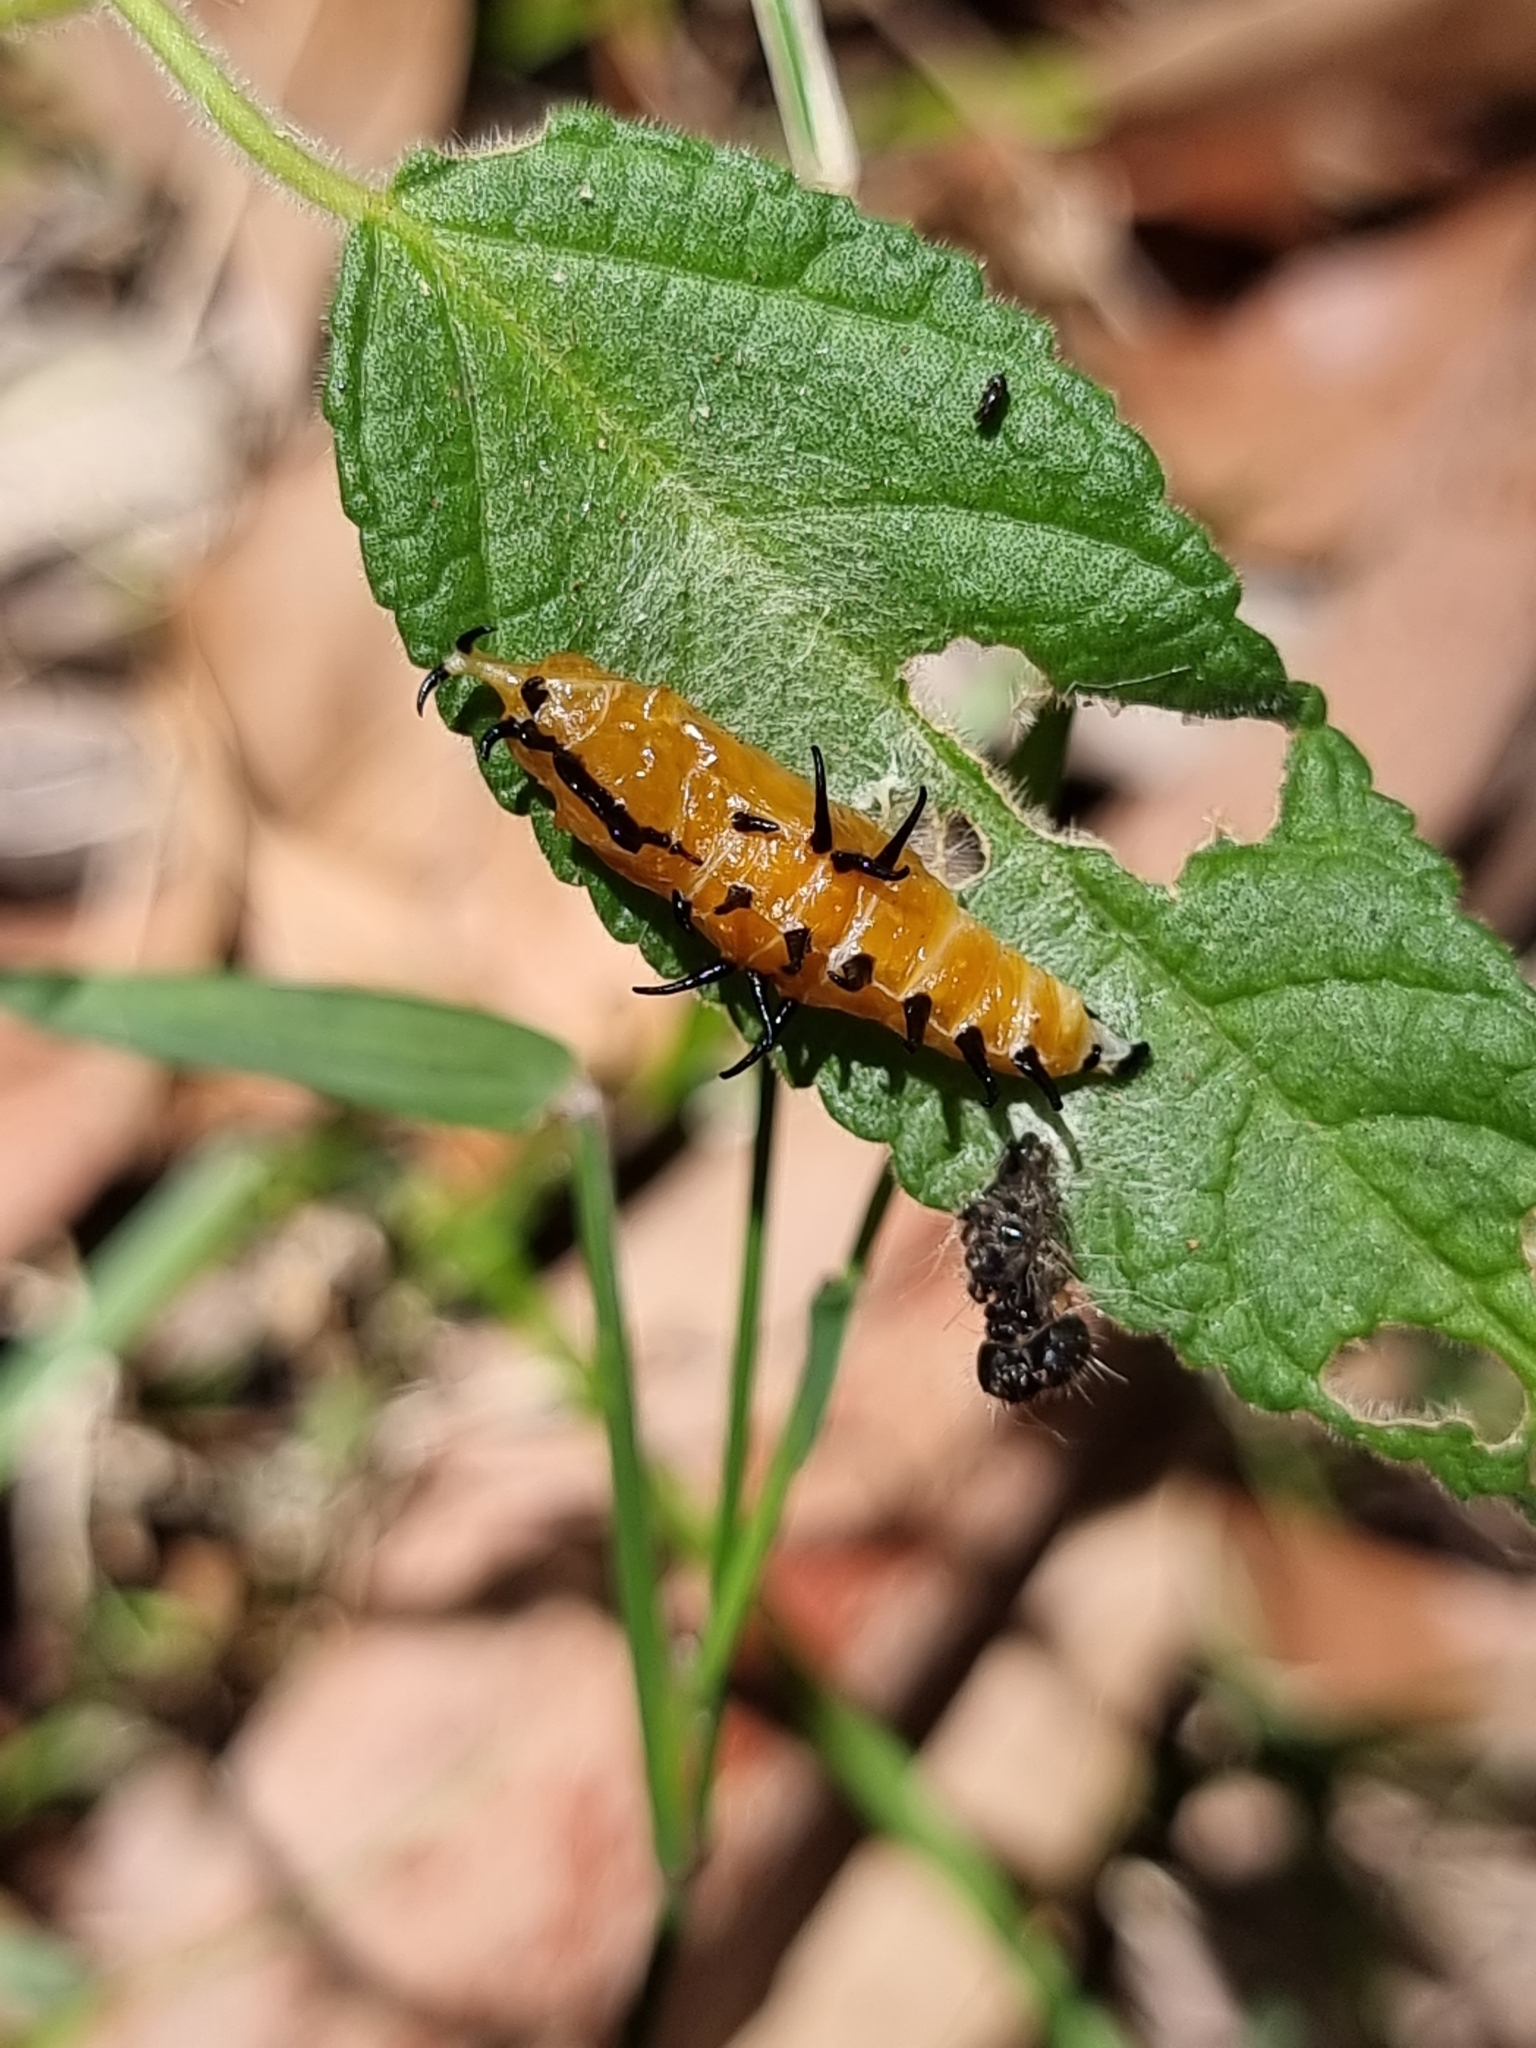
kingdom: Animalia
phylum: Arthropoda
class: Insecta
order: Lepidoptera
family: Pieridae
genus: Delias
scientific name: Delias nigrina
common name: Black jezebel
